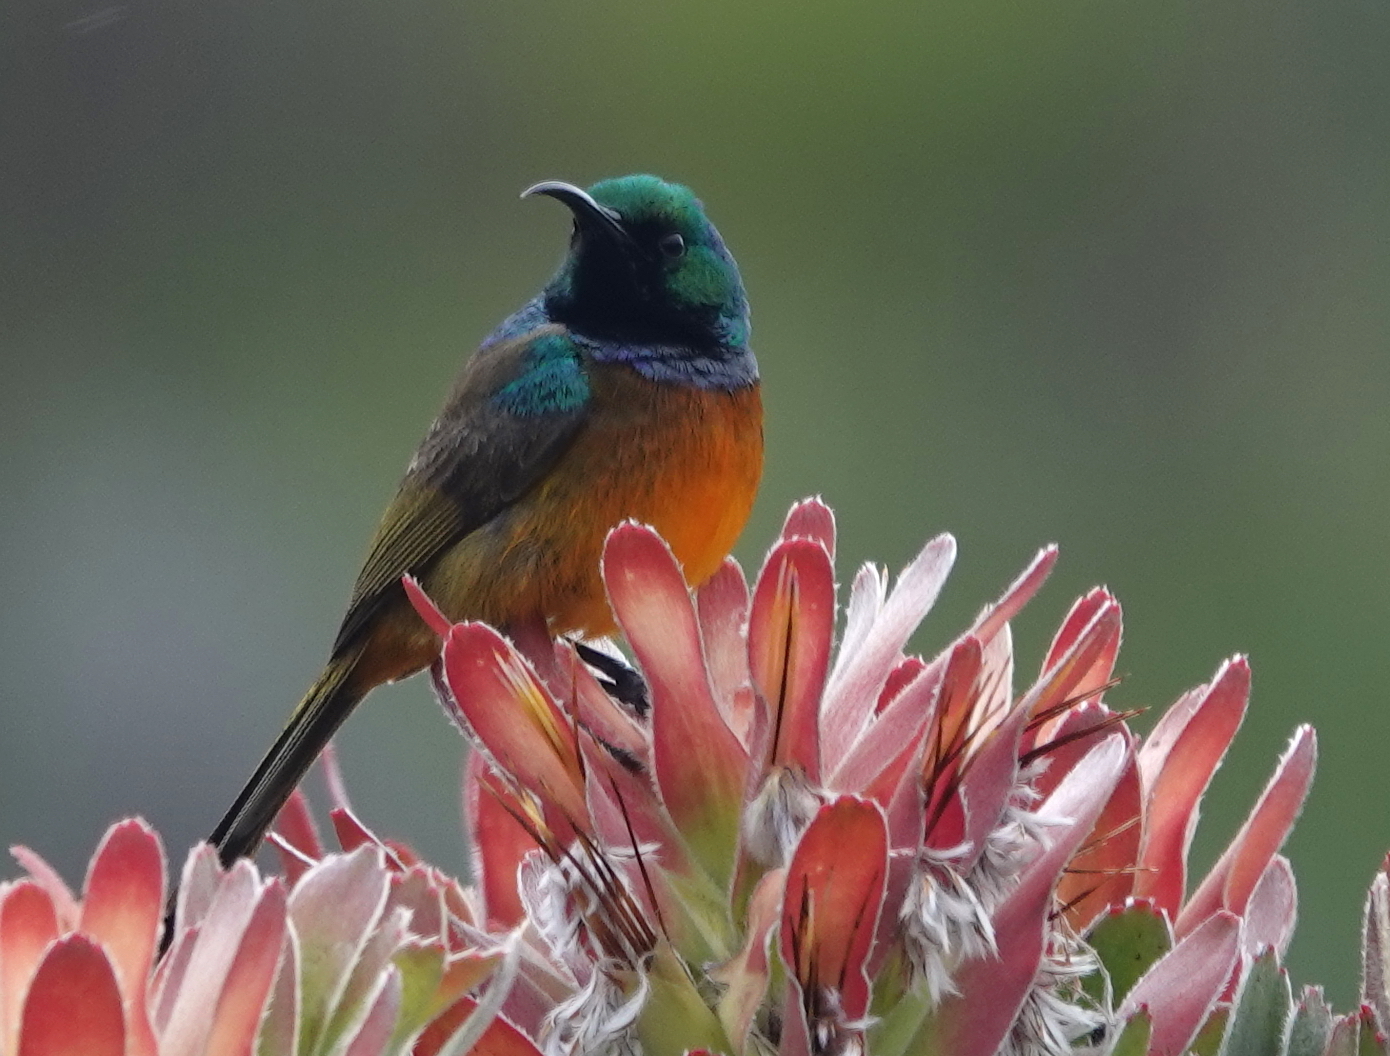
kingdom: Animalia
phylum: Chordata
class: Aves
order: Passeriformes
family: Nectariniidae
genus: Anthobaphes
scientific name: Anthobaphes violacea
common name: Orange-breasted sunbird
